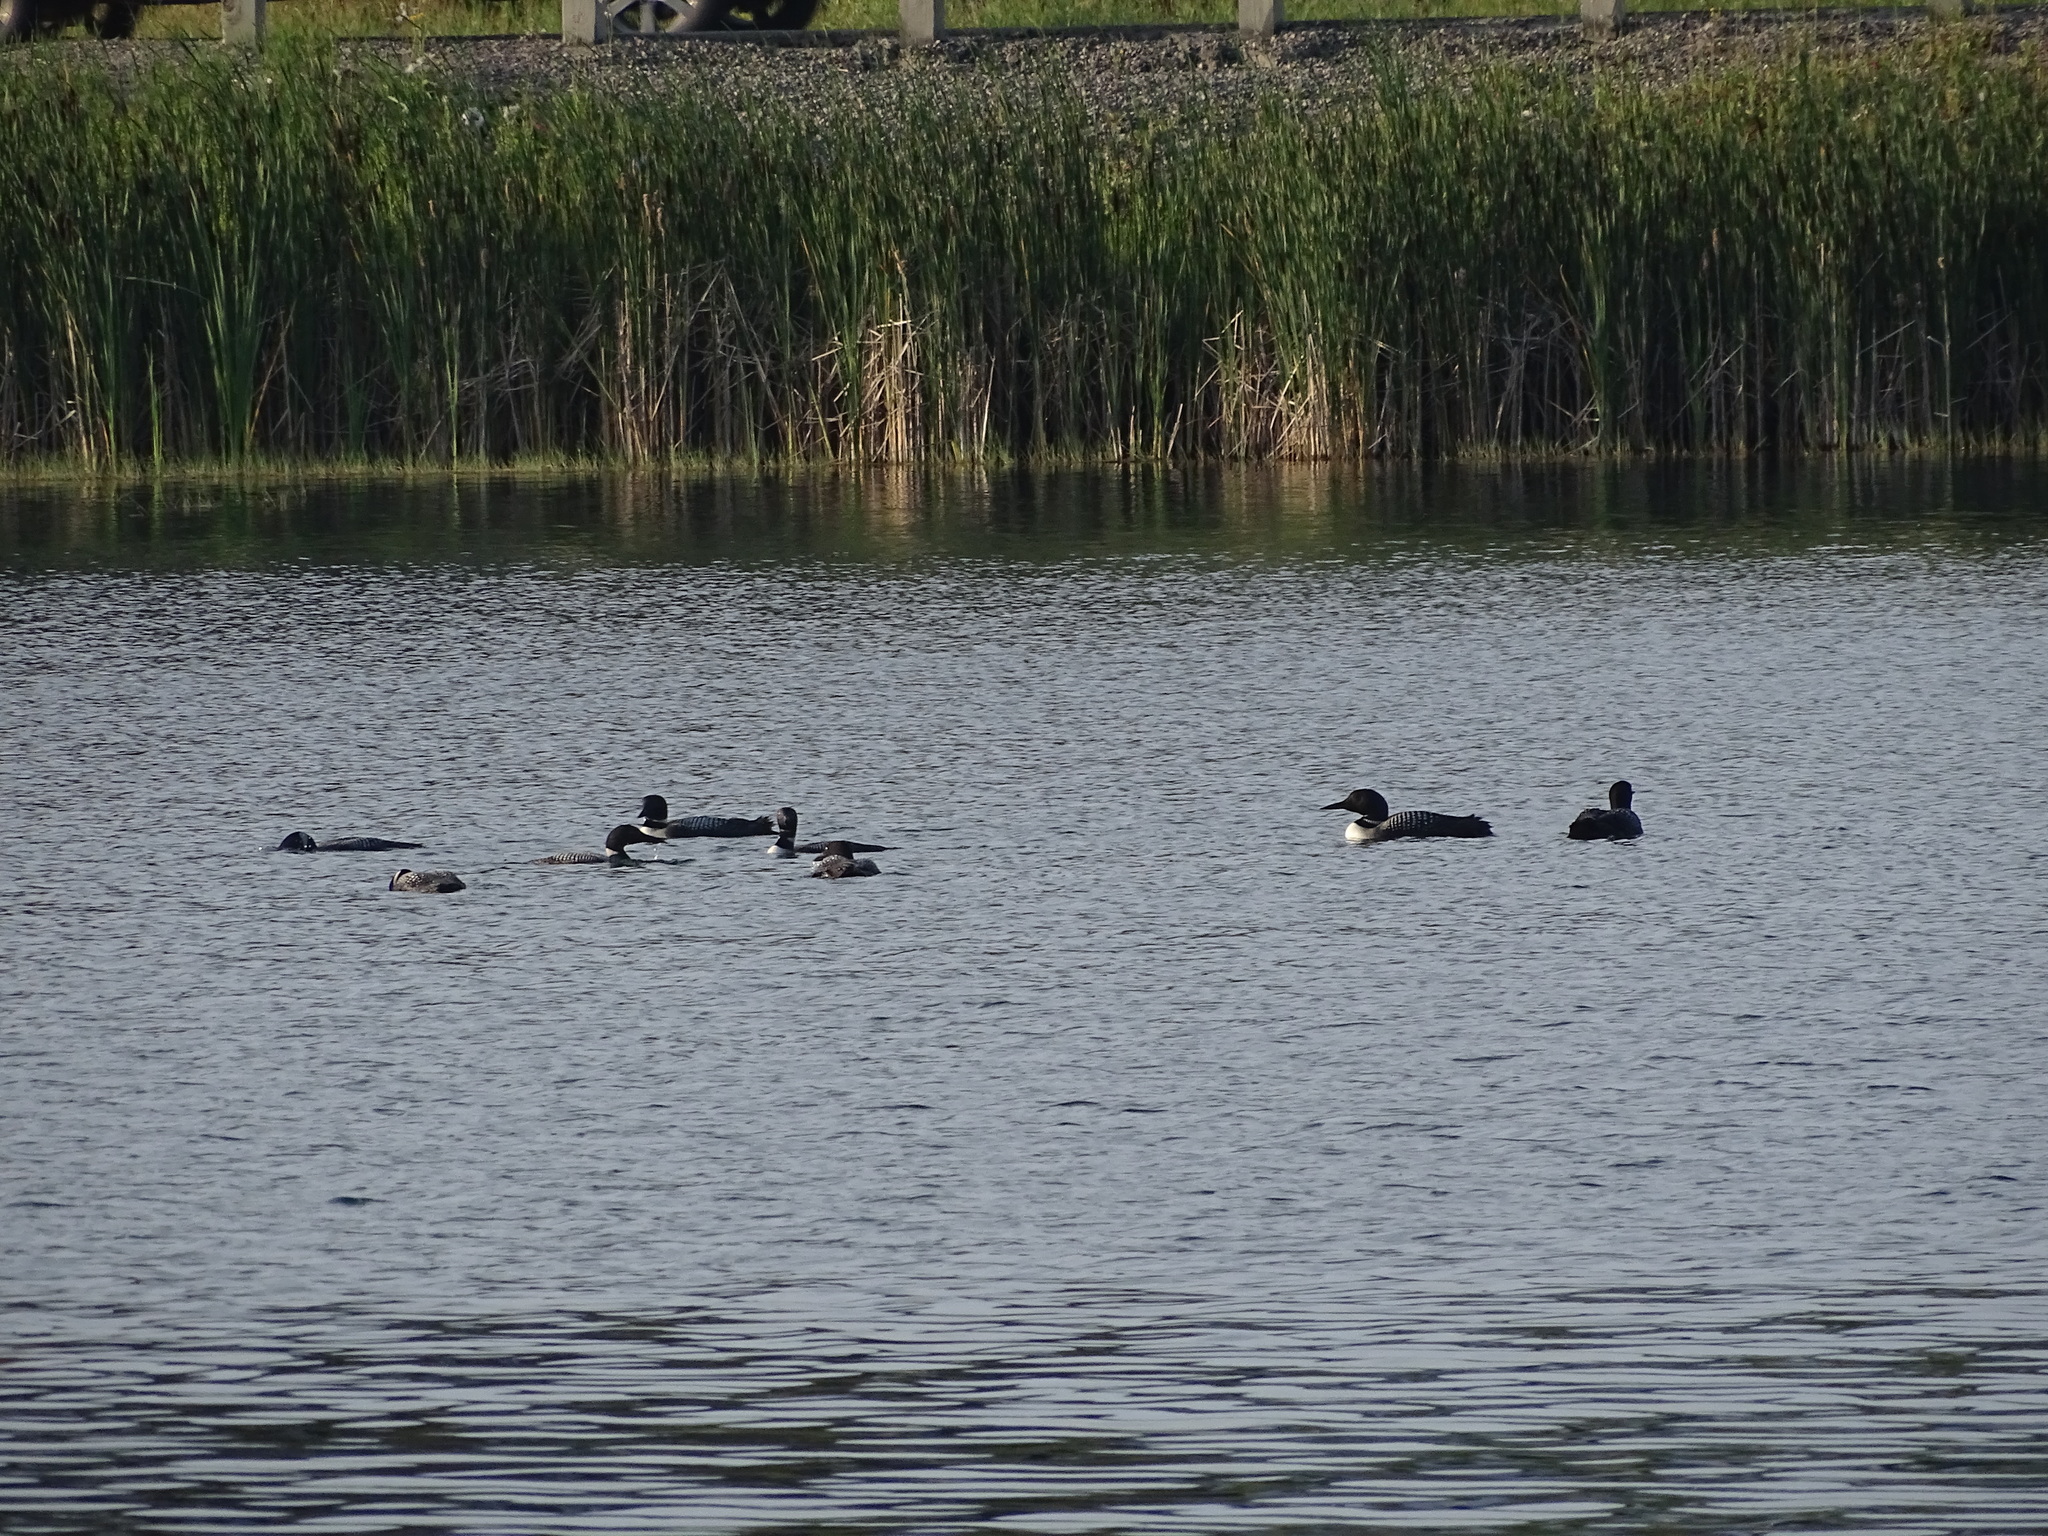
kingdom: Animalia
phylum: Chordata
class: Aves
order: Gaviiformes
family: Gaviidae
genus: Gavia
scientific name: Gavia immer
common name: Common loon
